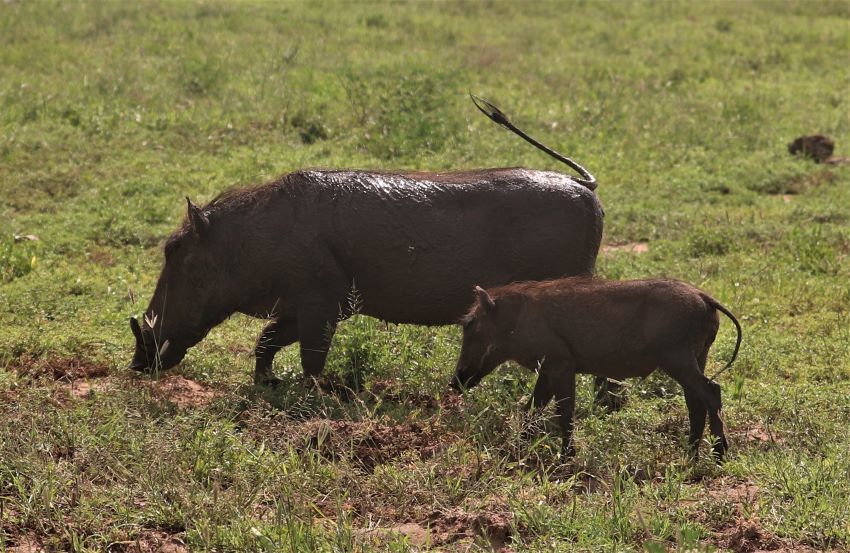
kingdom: Animalia
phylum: Chordata
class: Mammalia
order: Artiodactyla
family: Suidae
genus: Phacochoerus
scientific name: Phacochoerus africanus
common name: Common warthog
